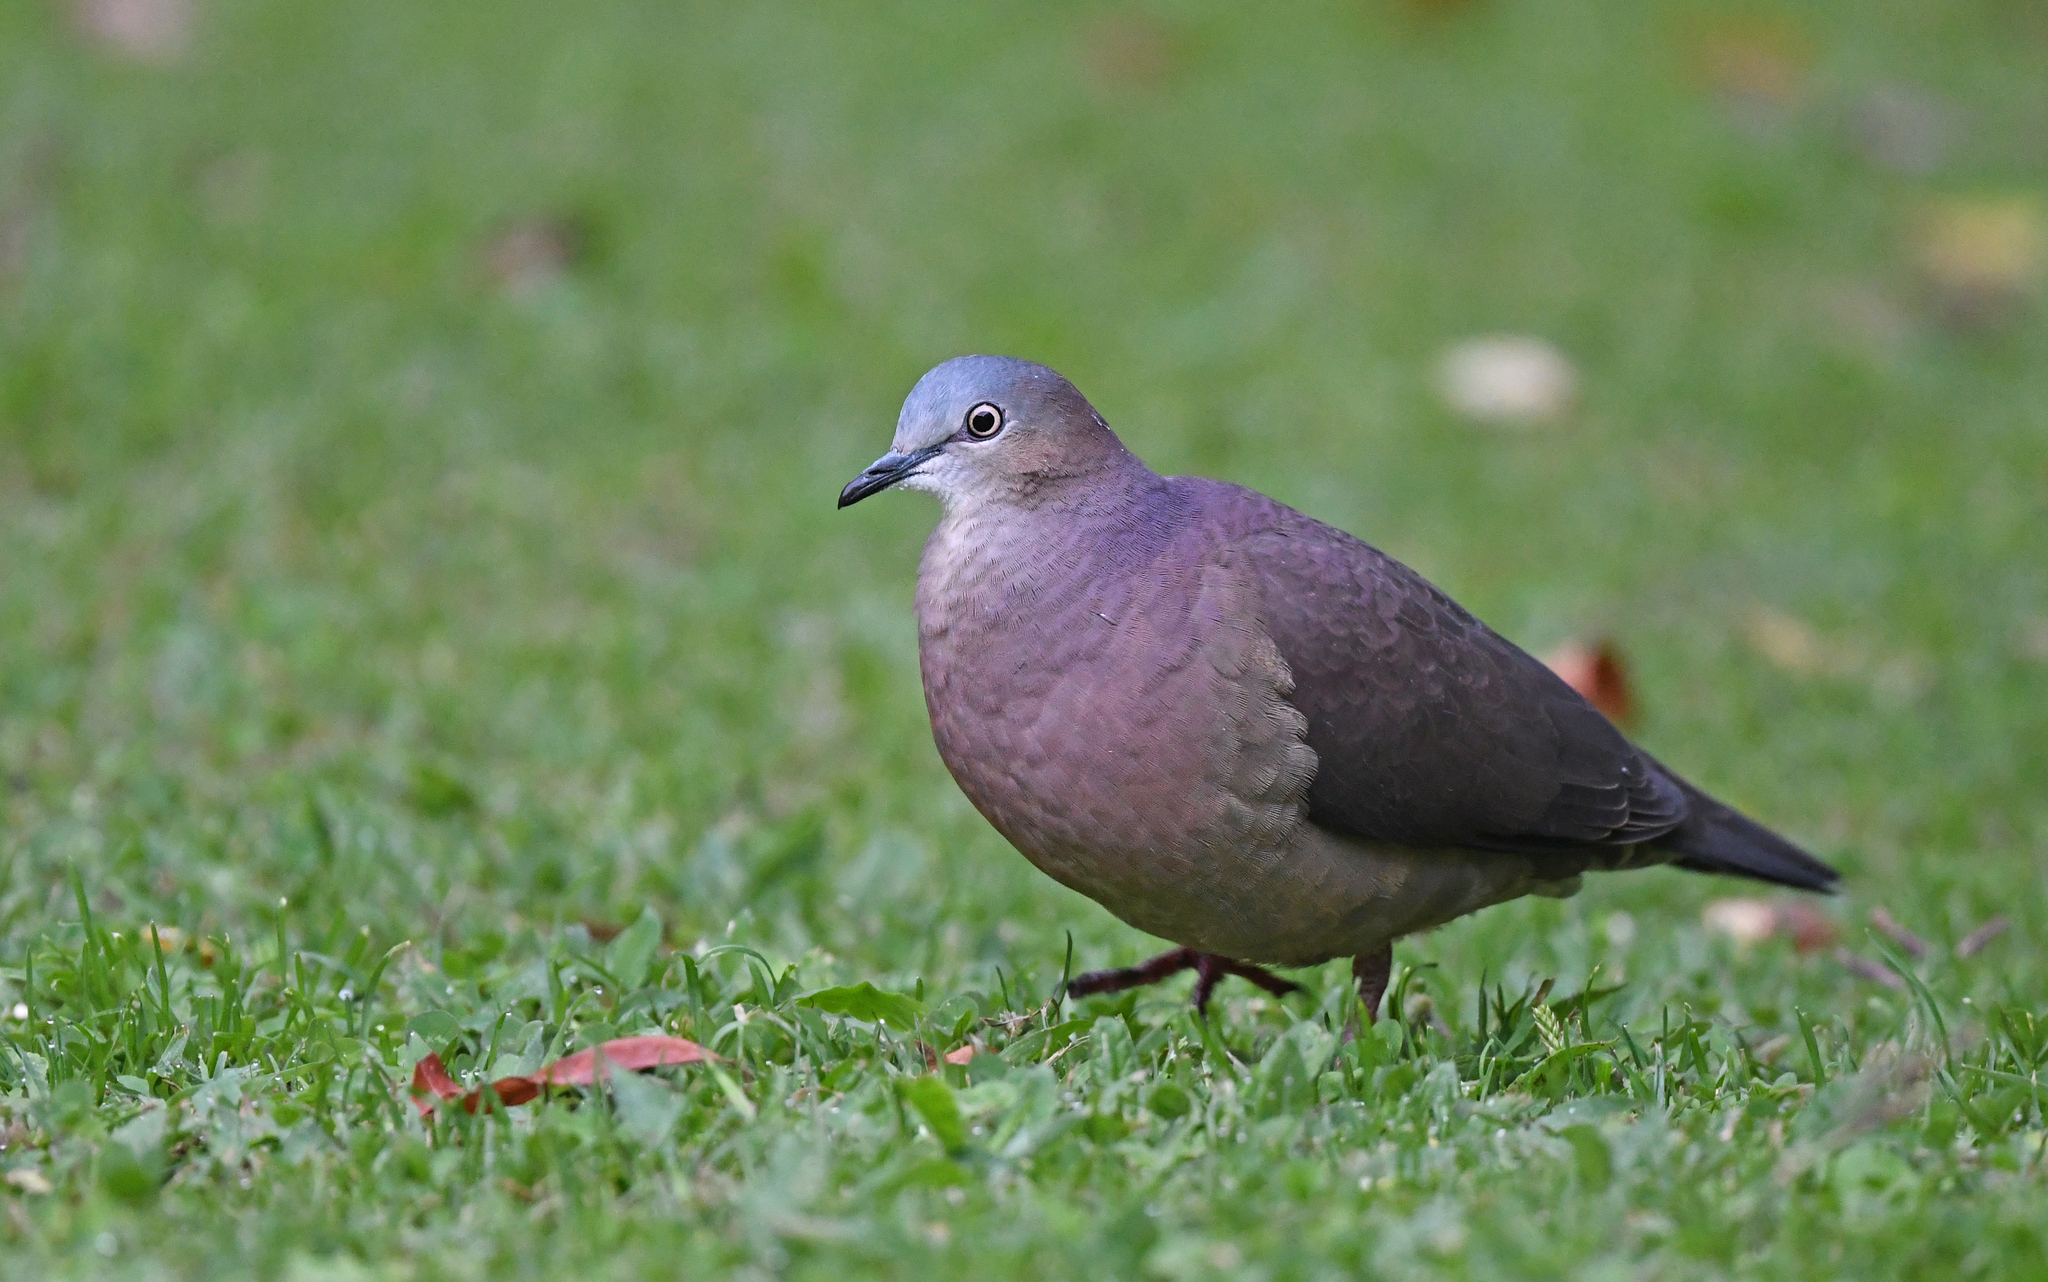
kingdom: Animalia
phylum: Chordata
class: Aves
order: Columbiformes
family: Columbidae
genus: Leptotila
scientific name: Leptotila conoveri
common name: Tolima dove
